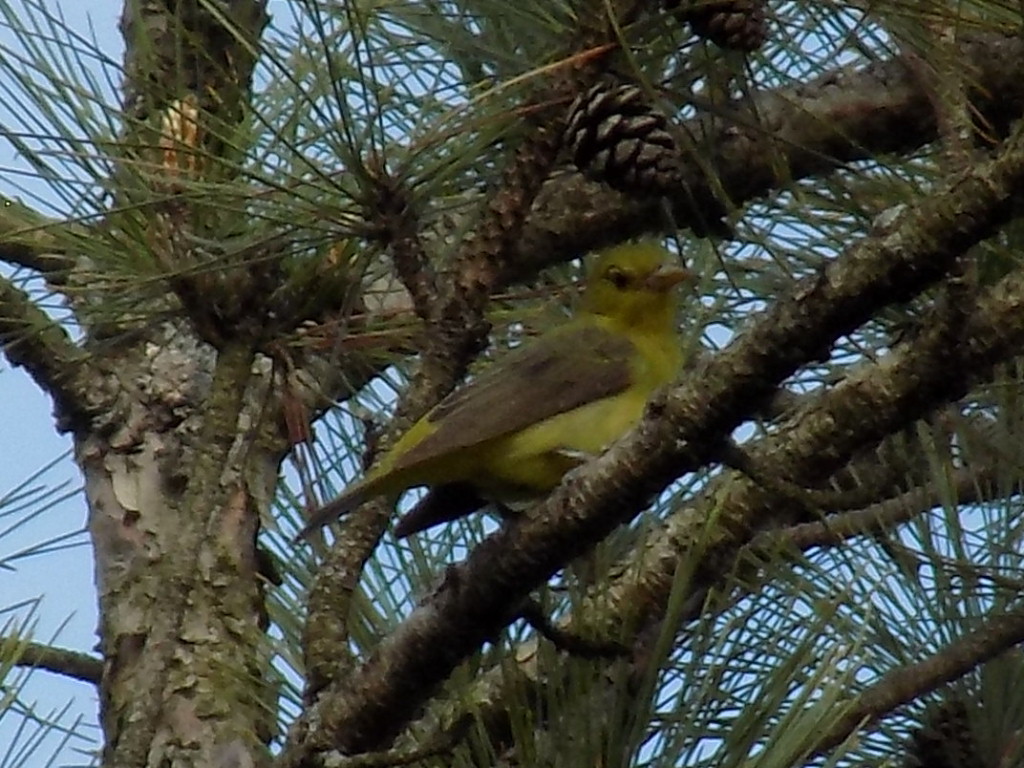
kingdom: Animalia
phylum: Chordata
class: Aves
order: Passeriformes
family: Cardinalidae
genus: Piranga
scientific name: Piranga olivacea
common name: Scarlet tanager
